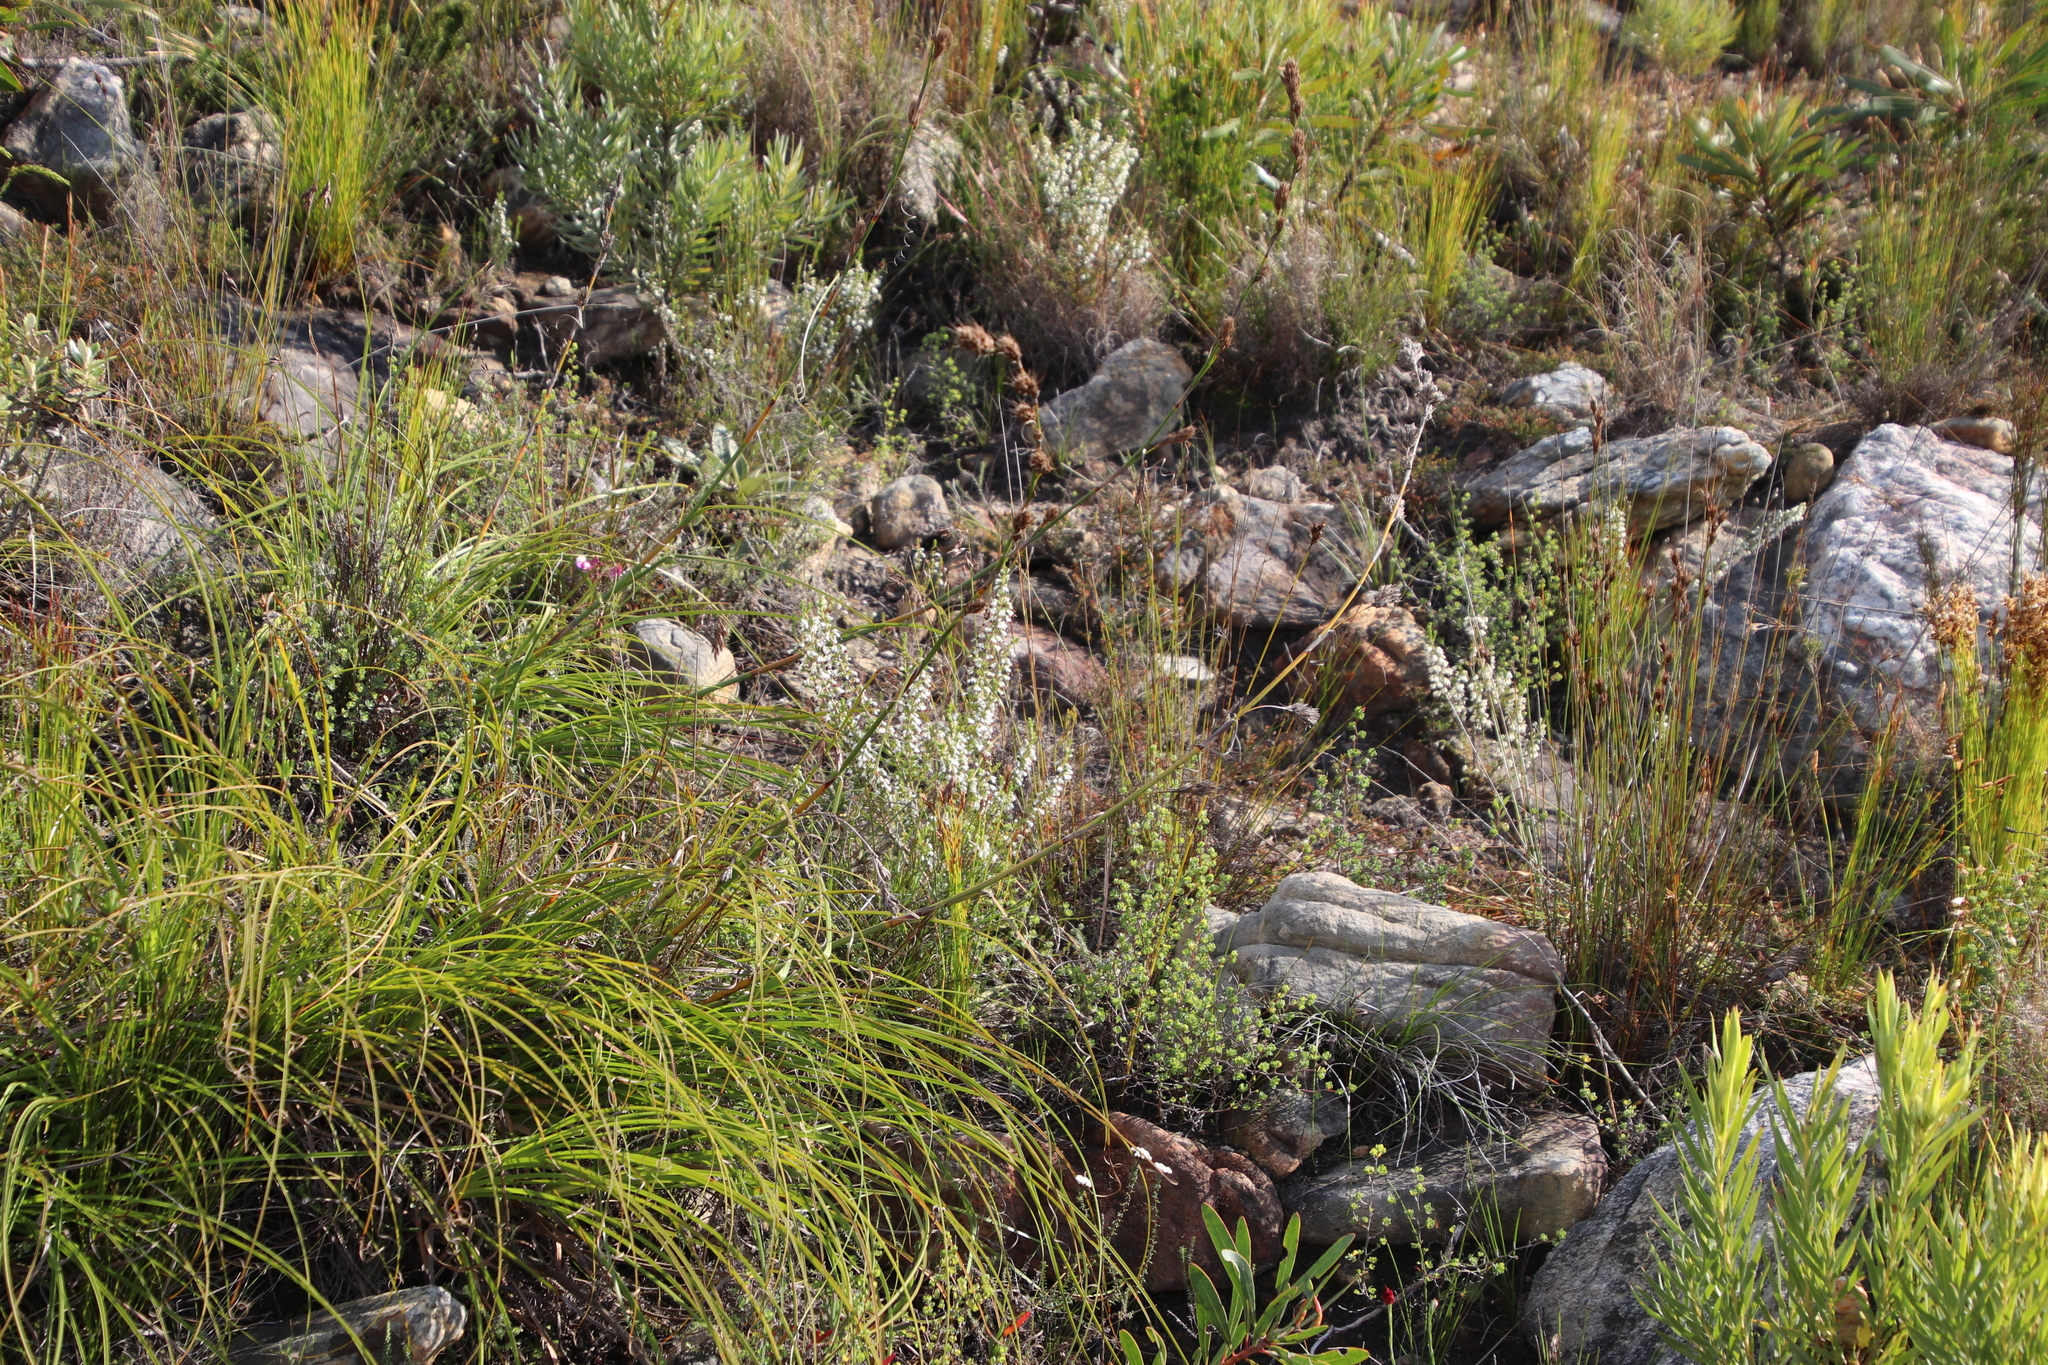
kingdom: Plantae
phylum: Tracheophyta
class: Magnoliopsida
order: Ericales
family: Ericaceae
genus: Erica
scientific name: Erica imbricata
